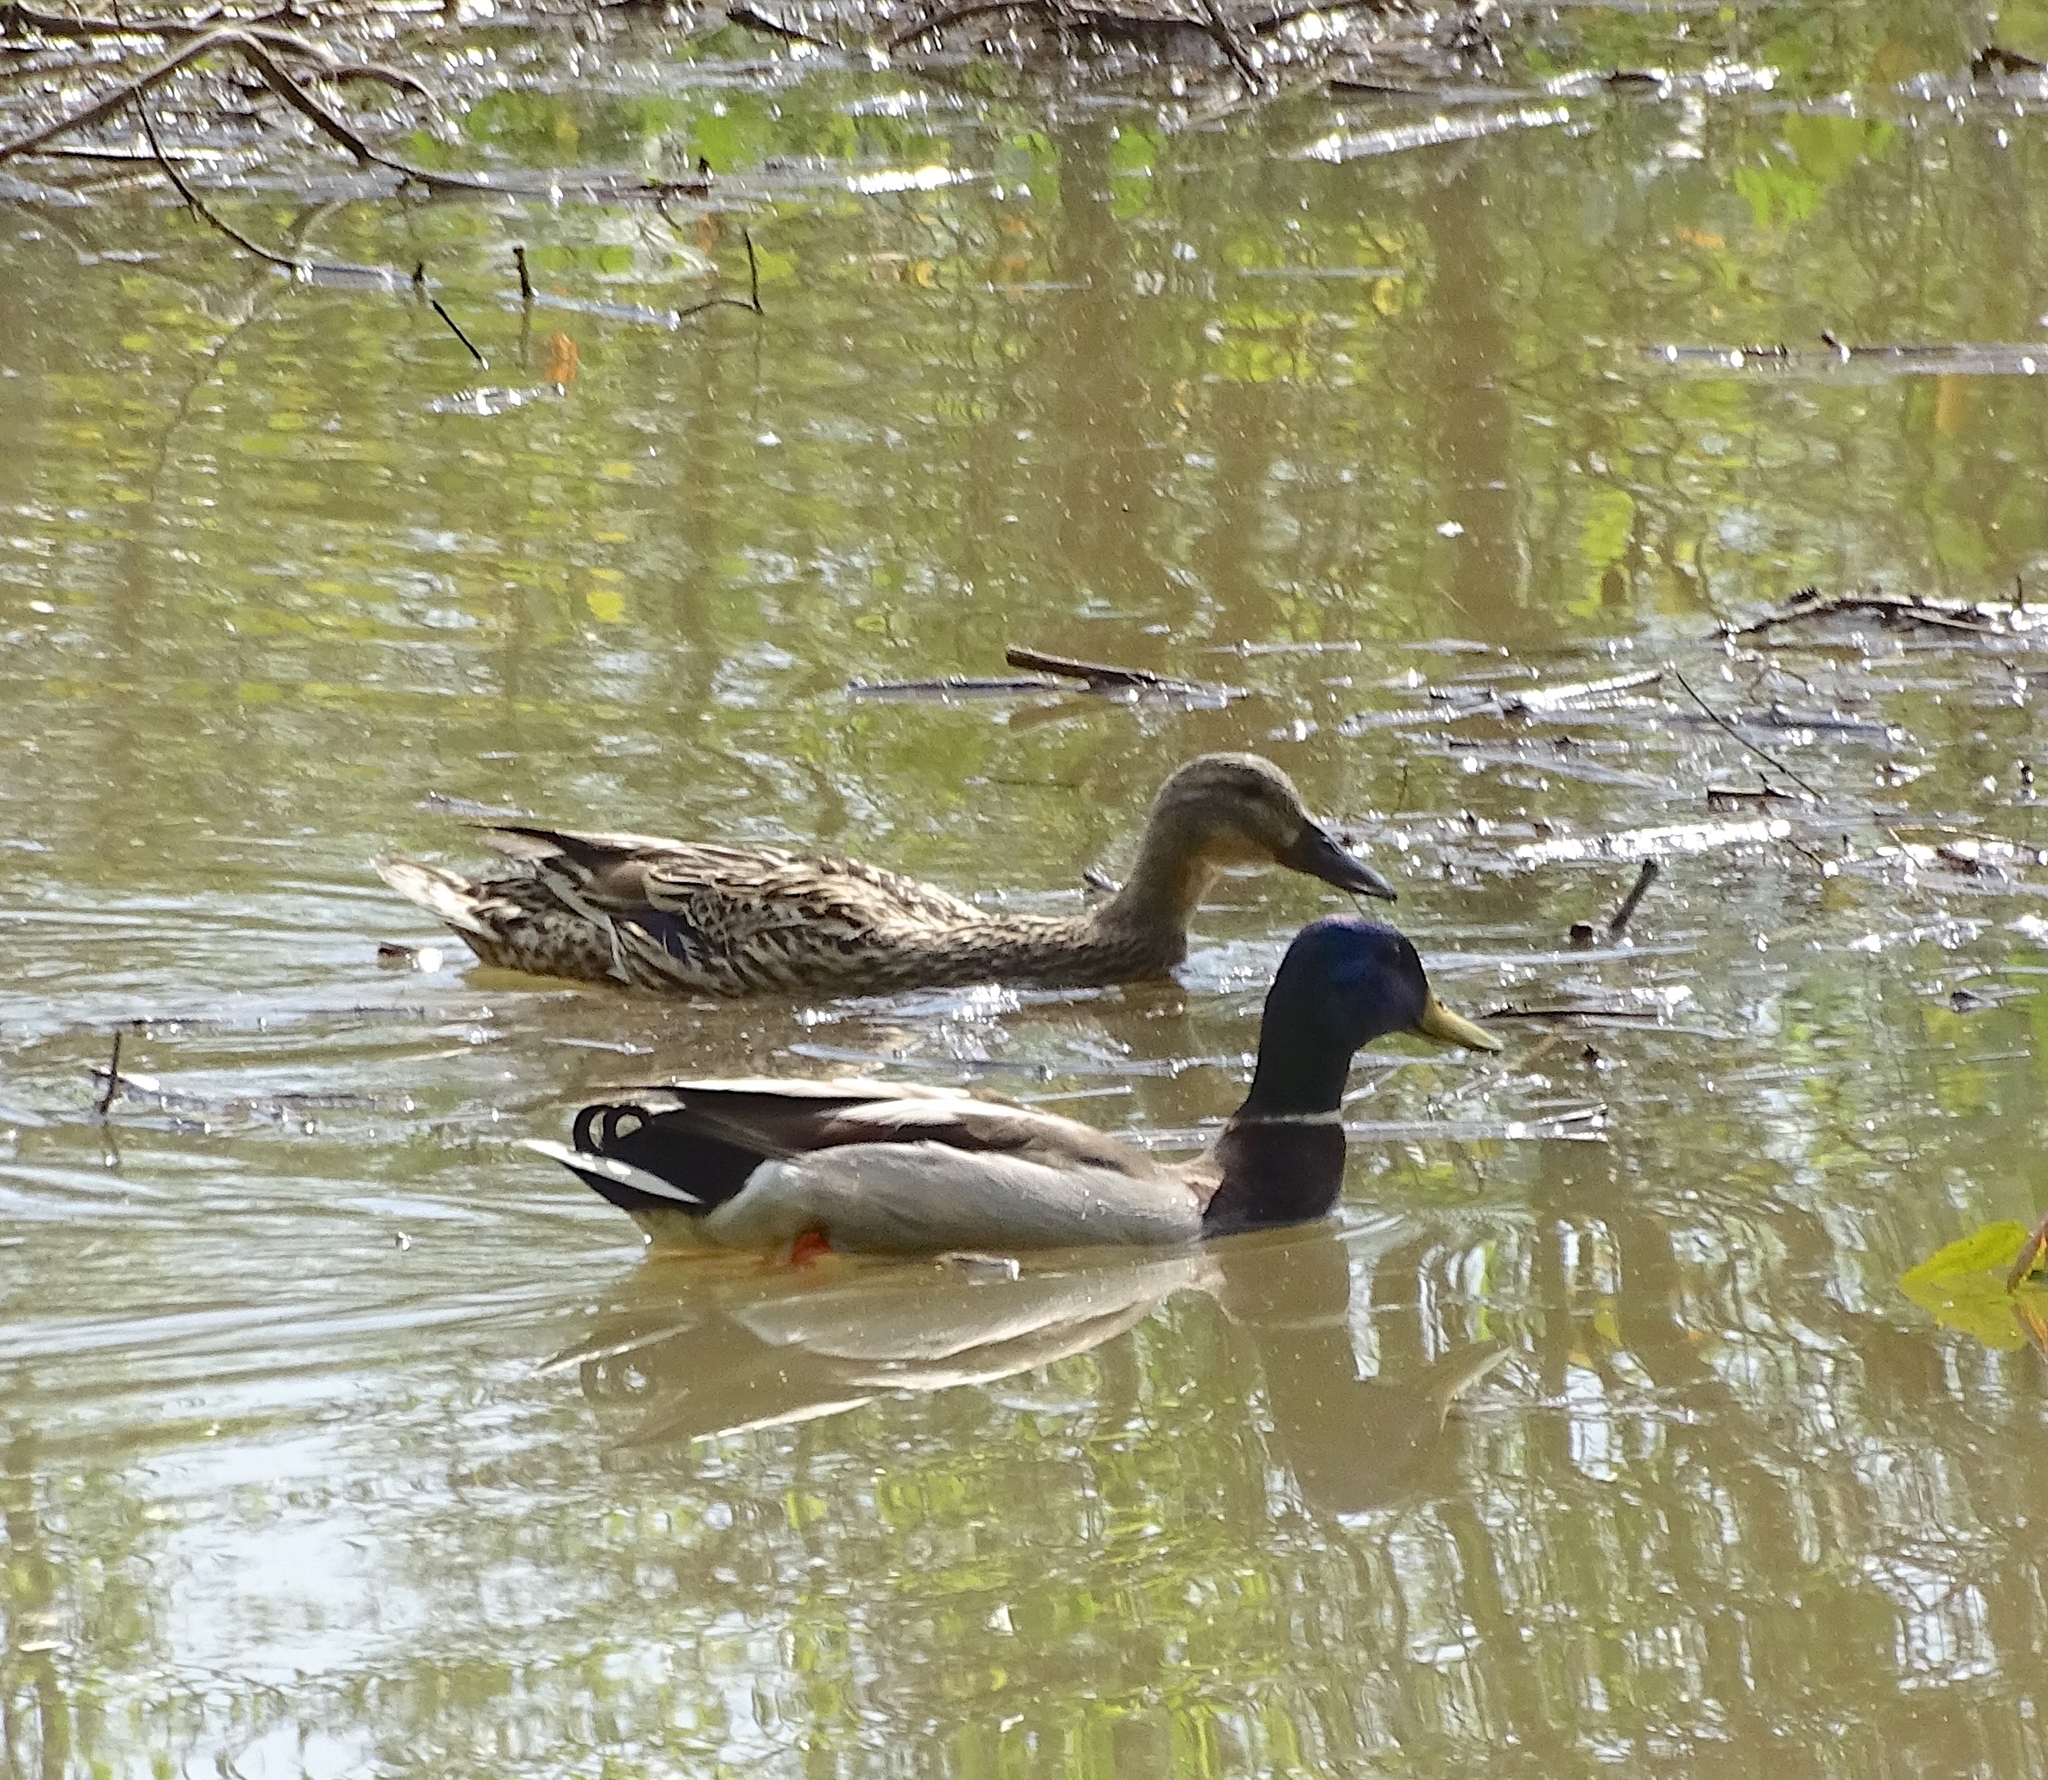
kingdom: Animalia
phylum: Chordata
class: Aves
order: Anseriformes
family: Anatidae
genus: Anas
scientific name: Anas platyrhynchos
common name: Mallard
